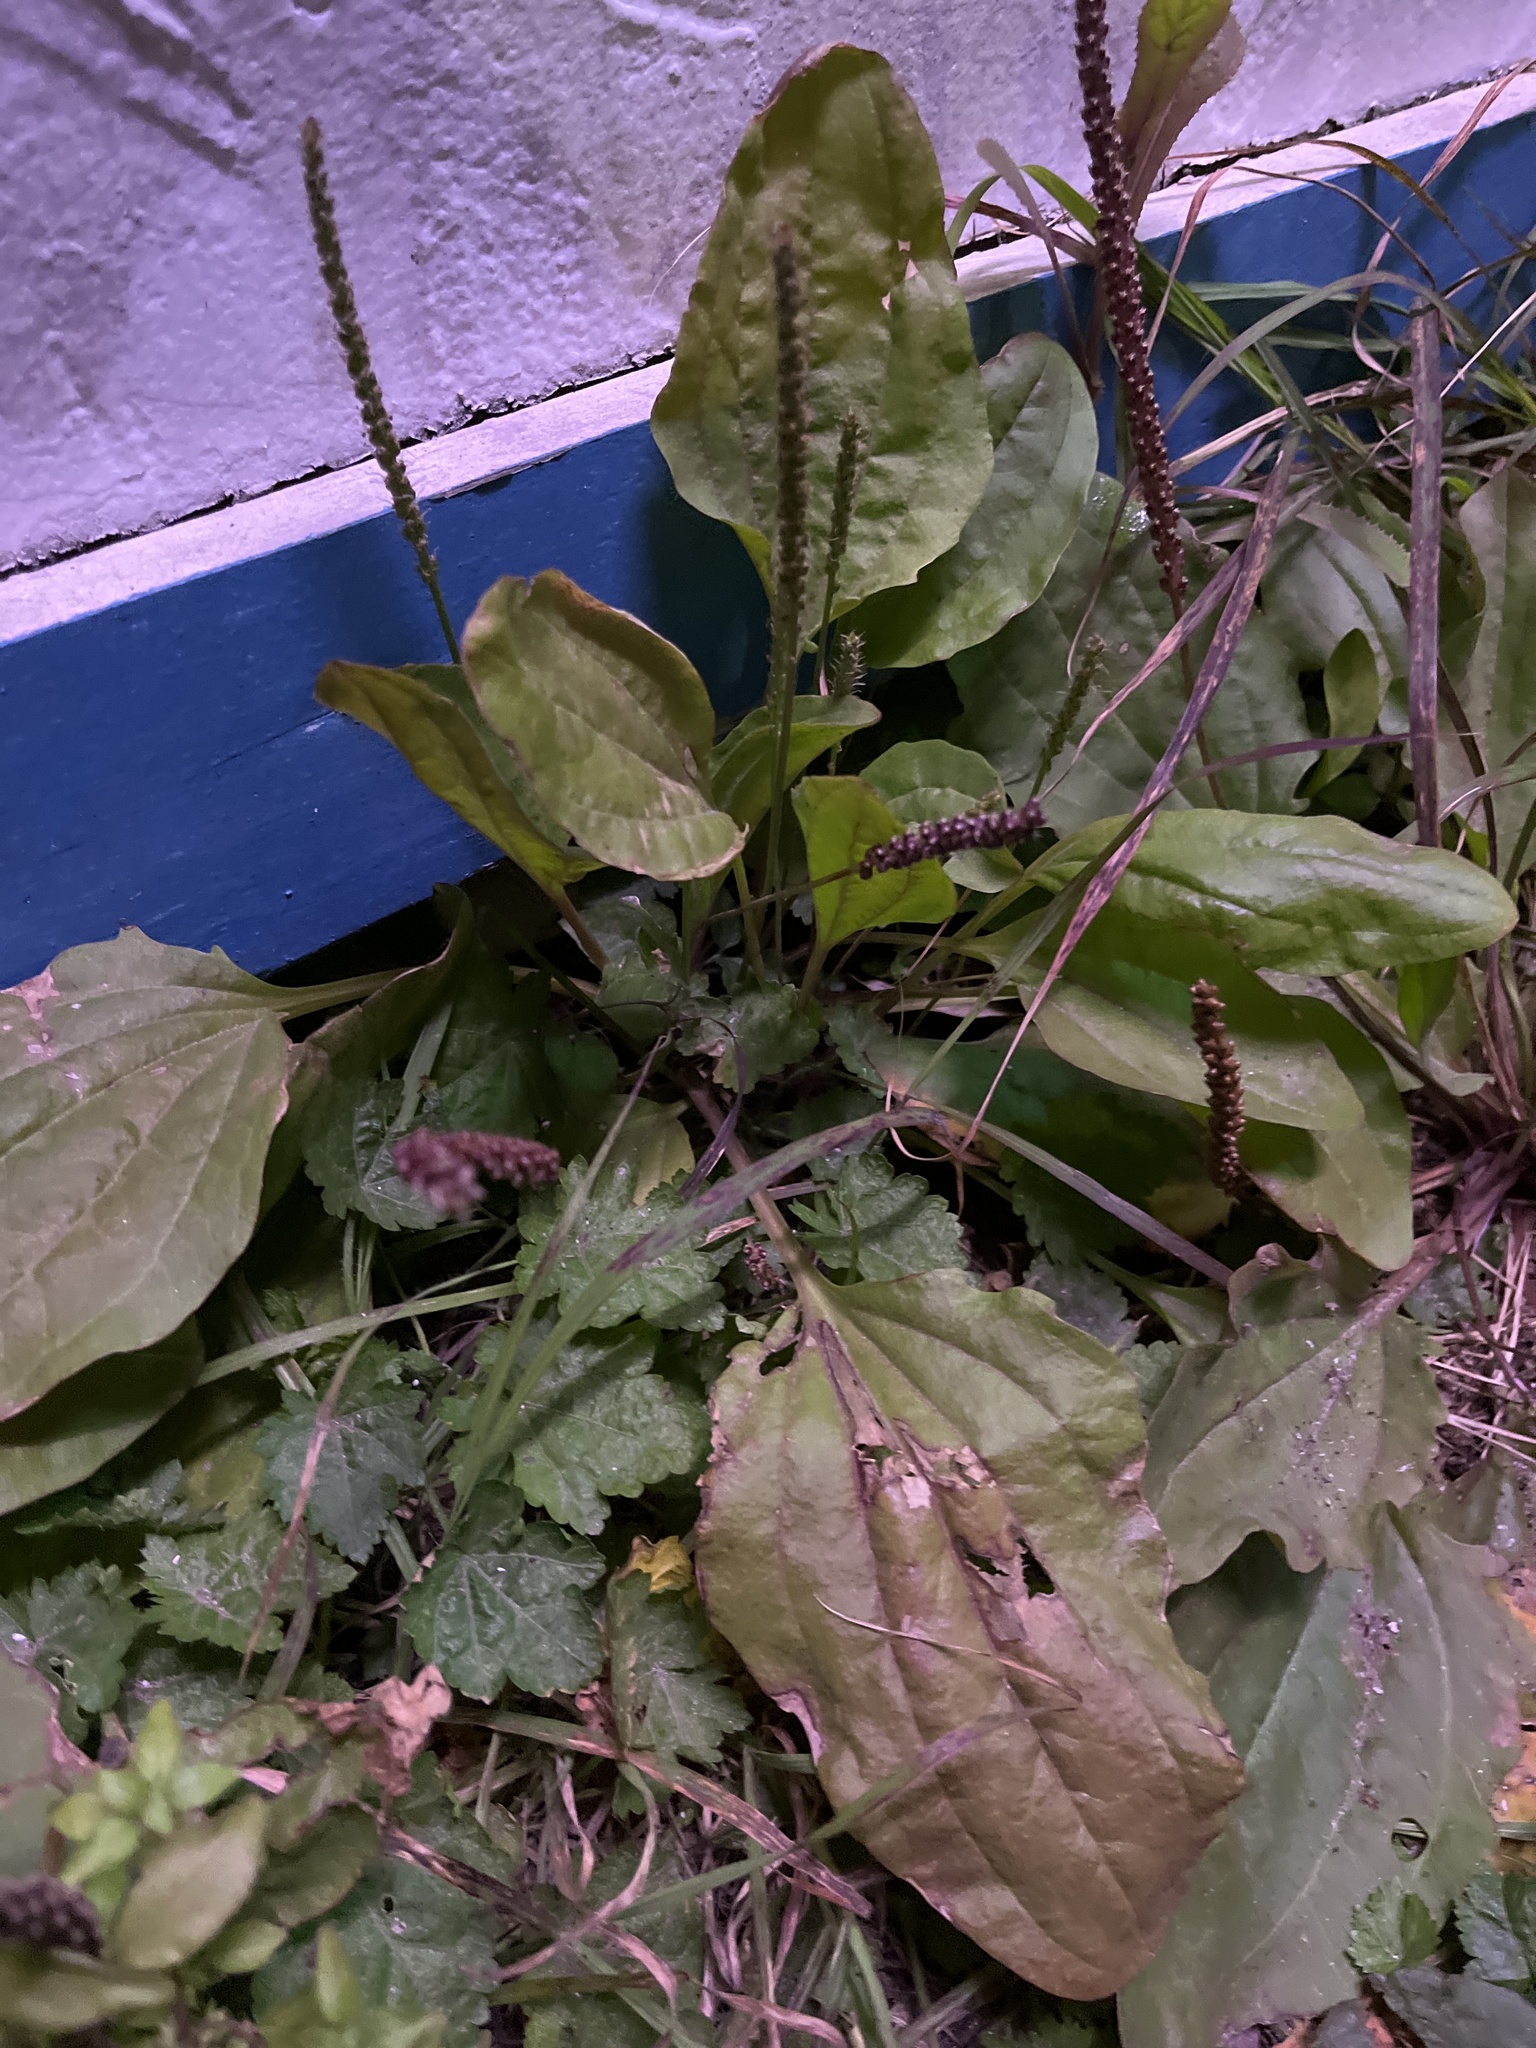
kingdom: Plantae
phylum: Tracheophyta
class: Magnoliopsida
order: Lamiales
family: Plantaginaceae
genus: Plantago
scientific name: Plantago major
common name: Common plantain
